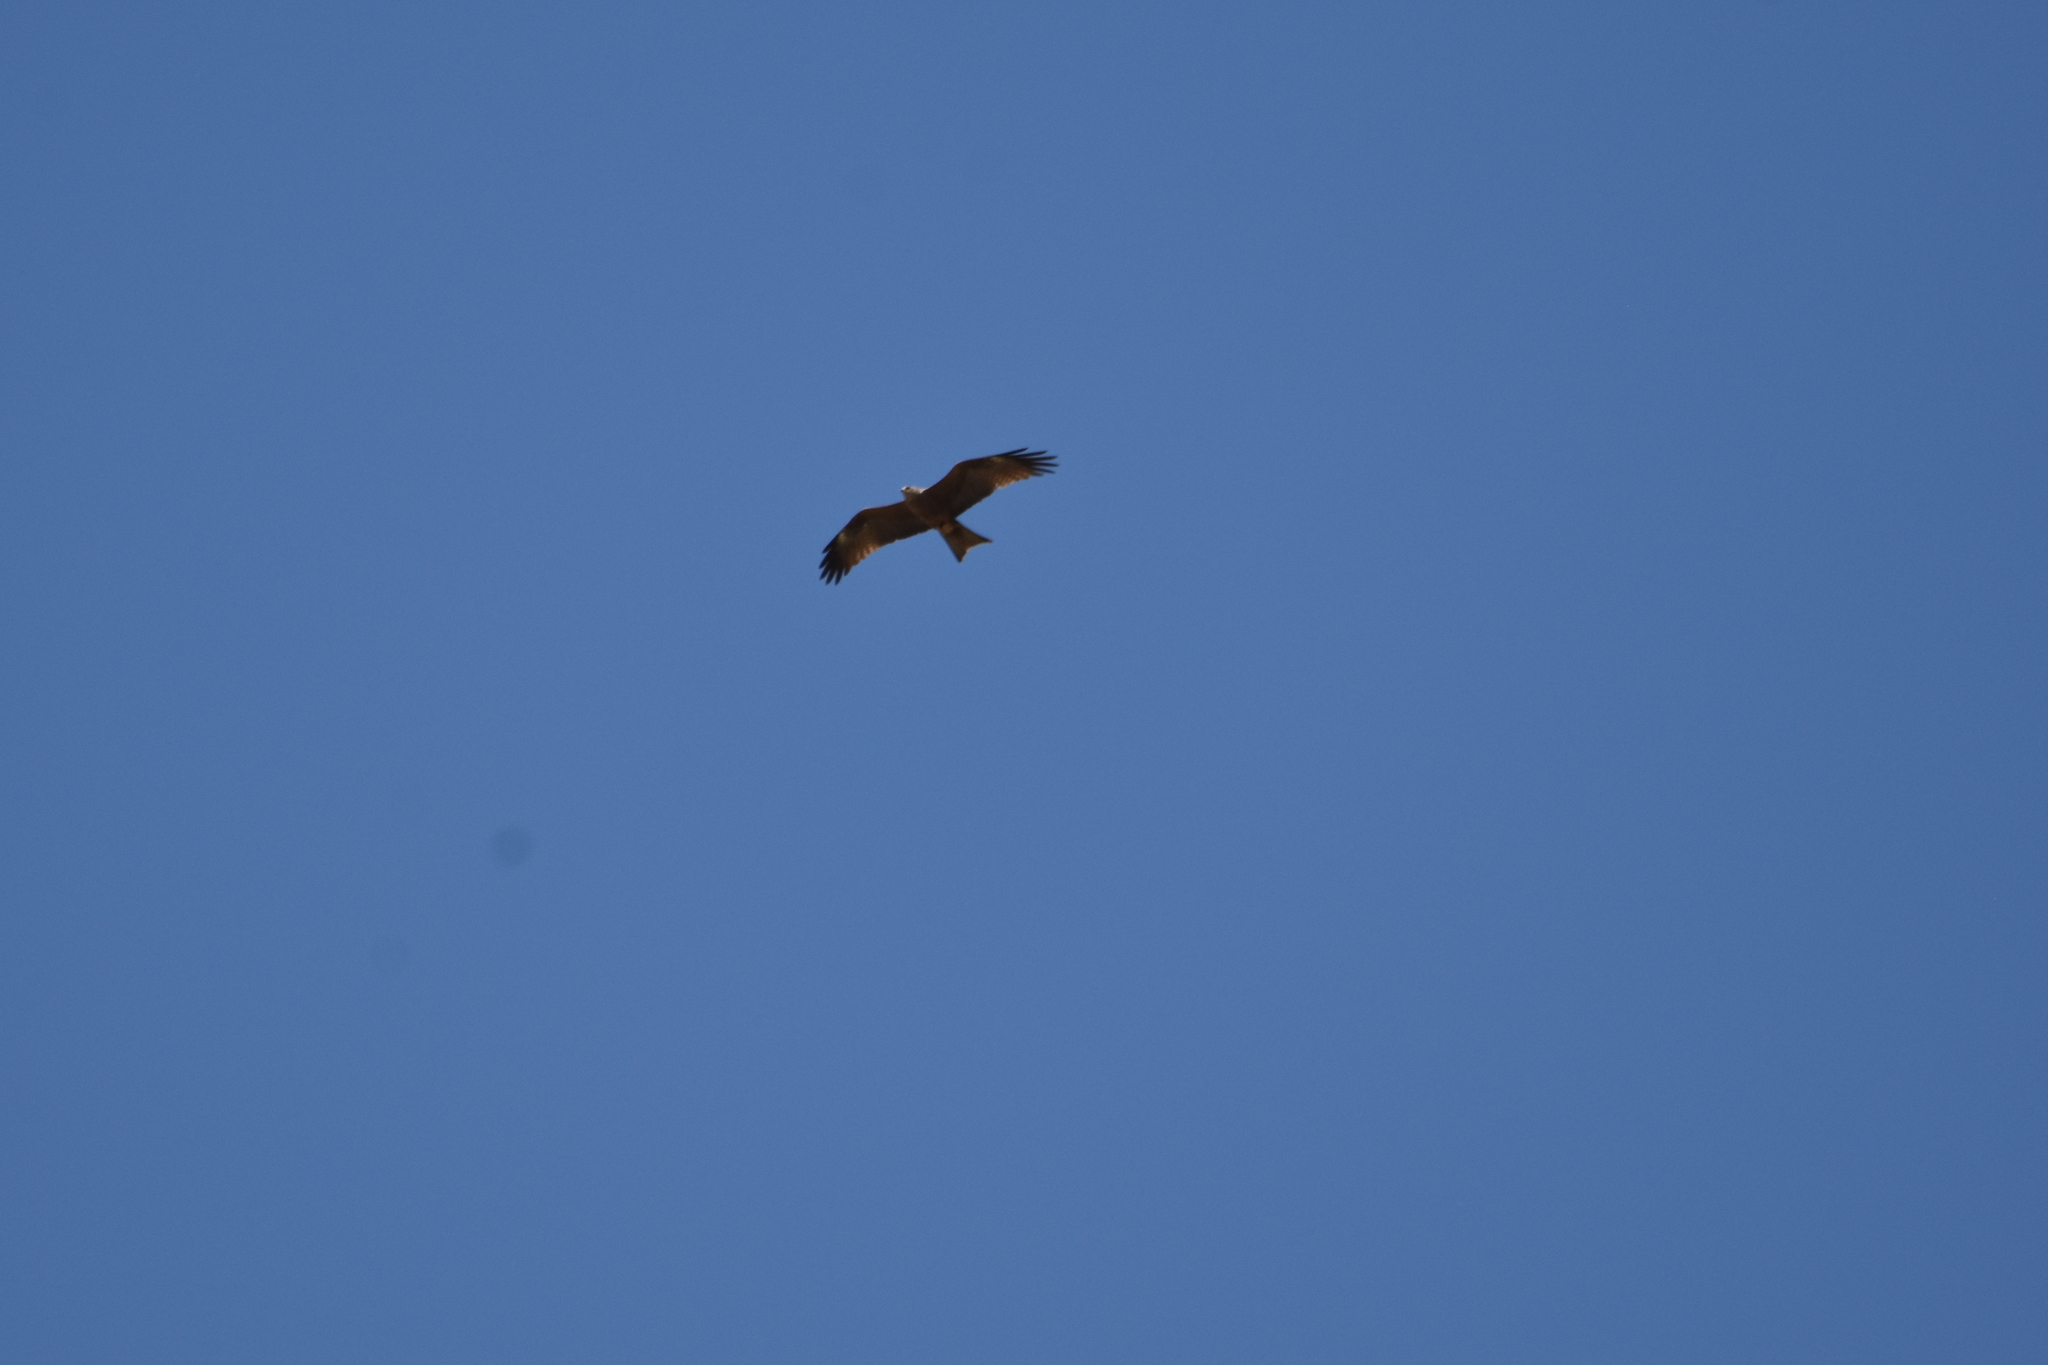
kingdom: Animalia
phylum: Chordata
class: Aves
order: Accipitriformes
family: Accipitridae
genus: Milvus
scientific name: Milvus migrans
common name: Black kite
